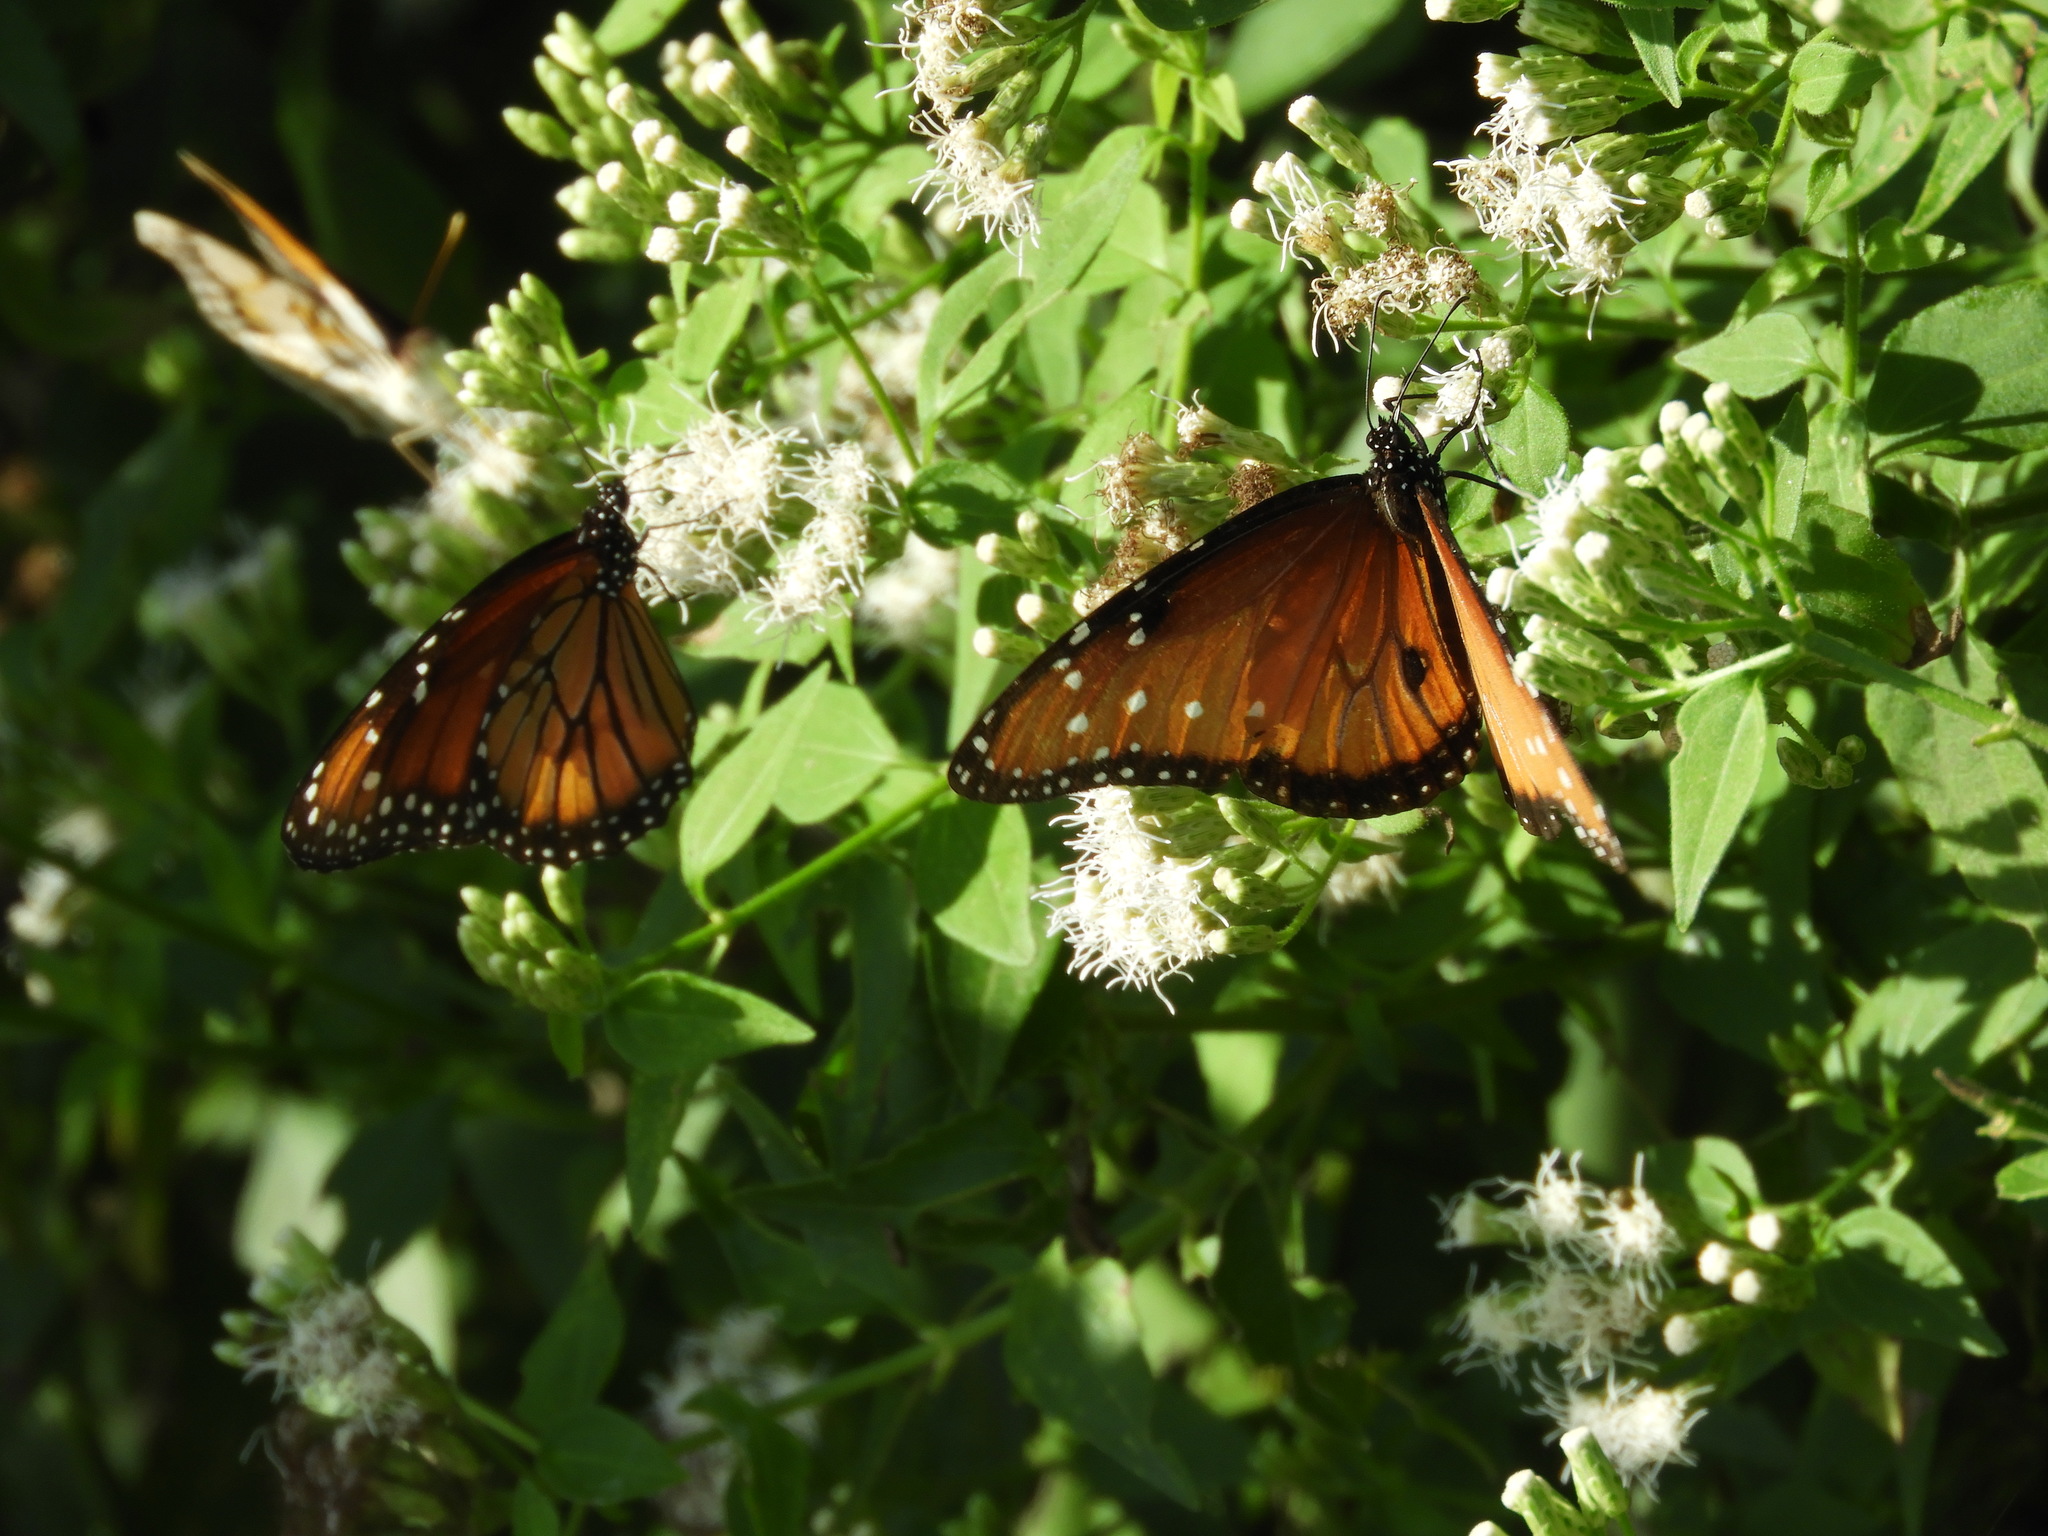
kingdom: Animalia
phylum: Arthropoda
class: Insecta
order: Lepidoptera
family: Nymphalidae
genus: Danaus
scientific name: Danaus gilippus
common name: Queen
